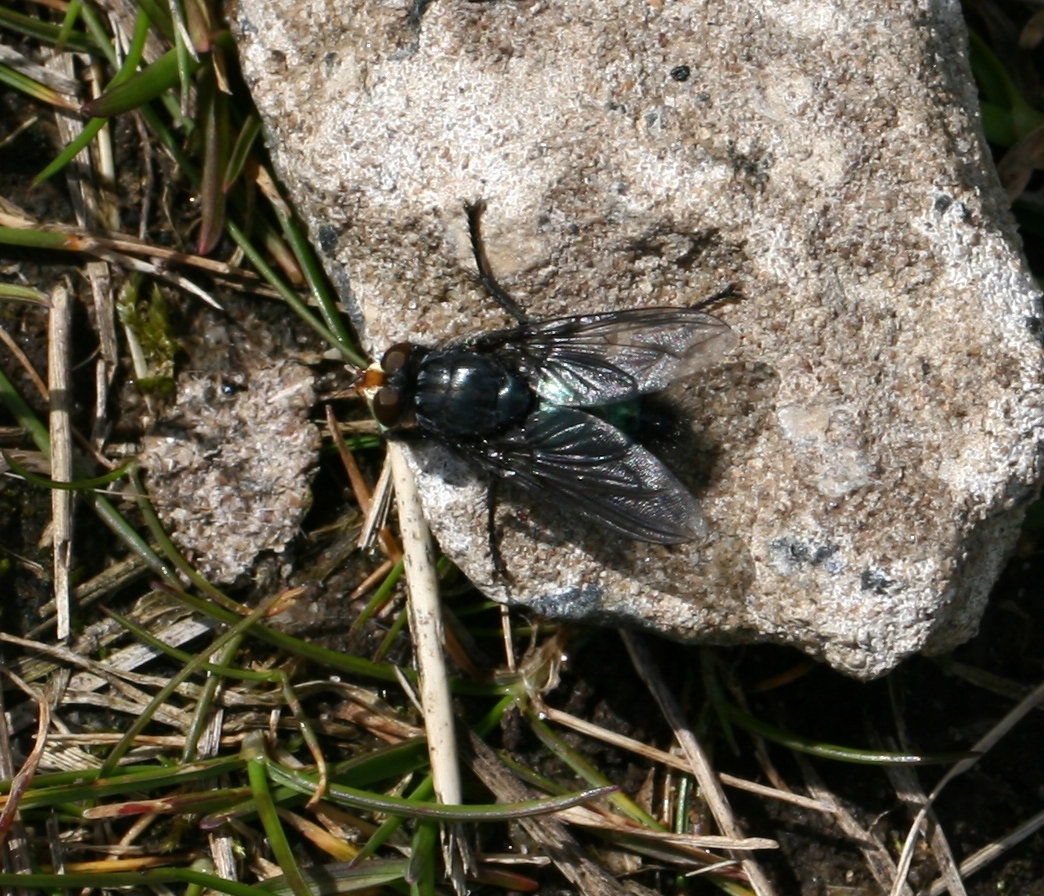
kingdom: Animalia
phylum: Arthropoda
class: Insecta
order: Diptera
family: Calliphoridae
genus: Cynomya
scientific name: Cynomya mortuorum
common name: Bluebottle blow fly
